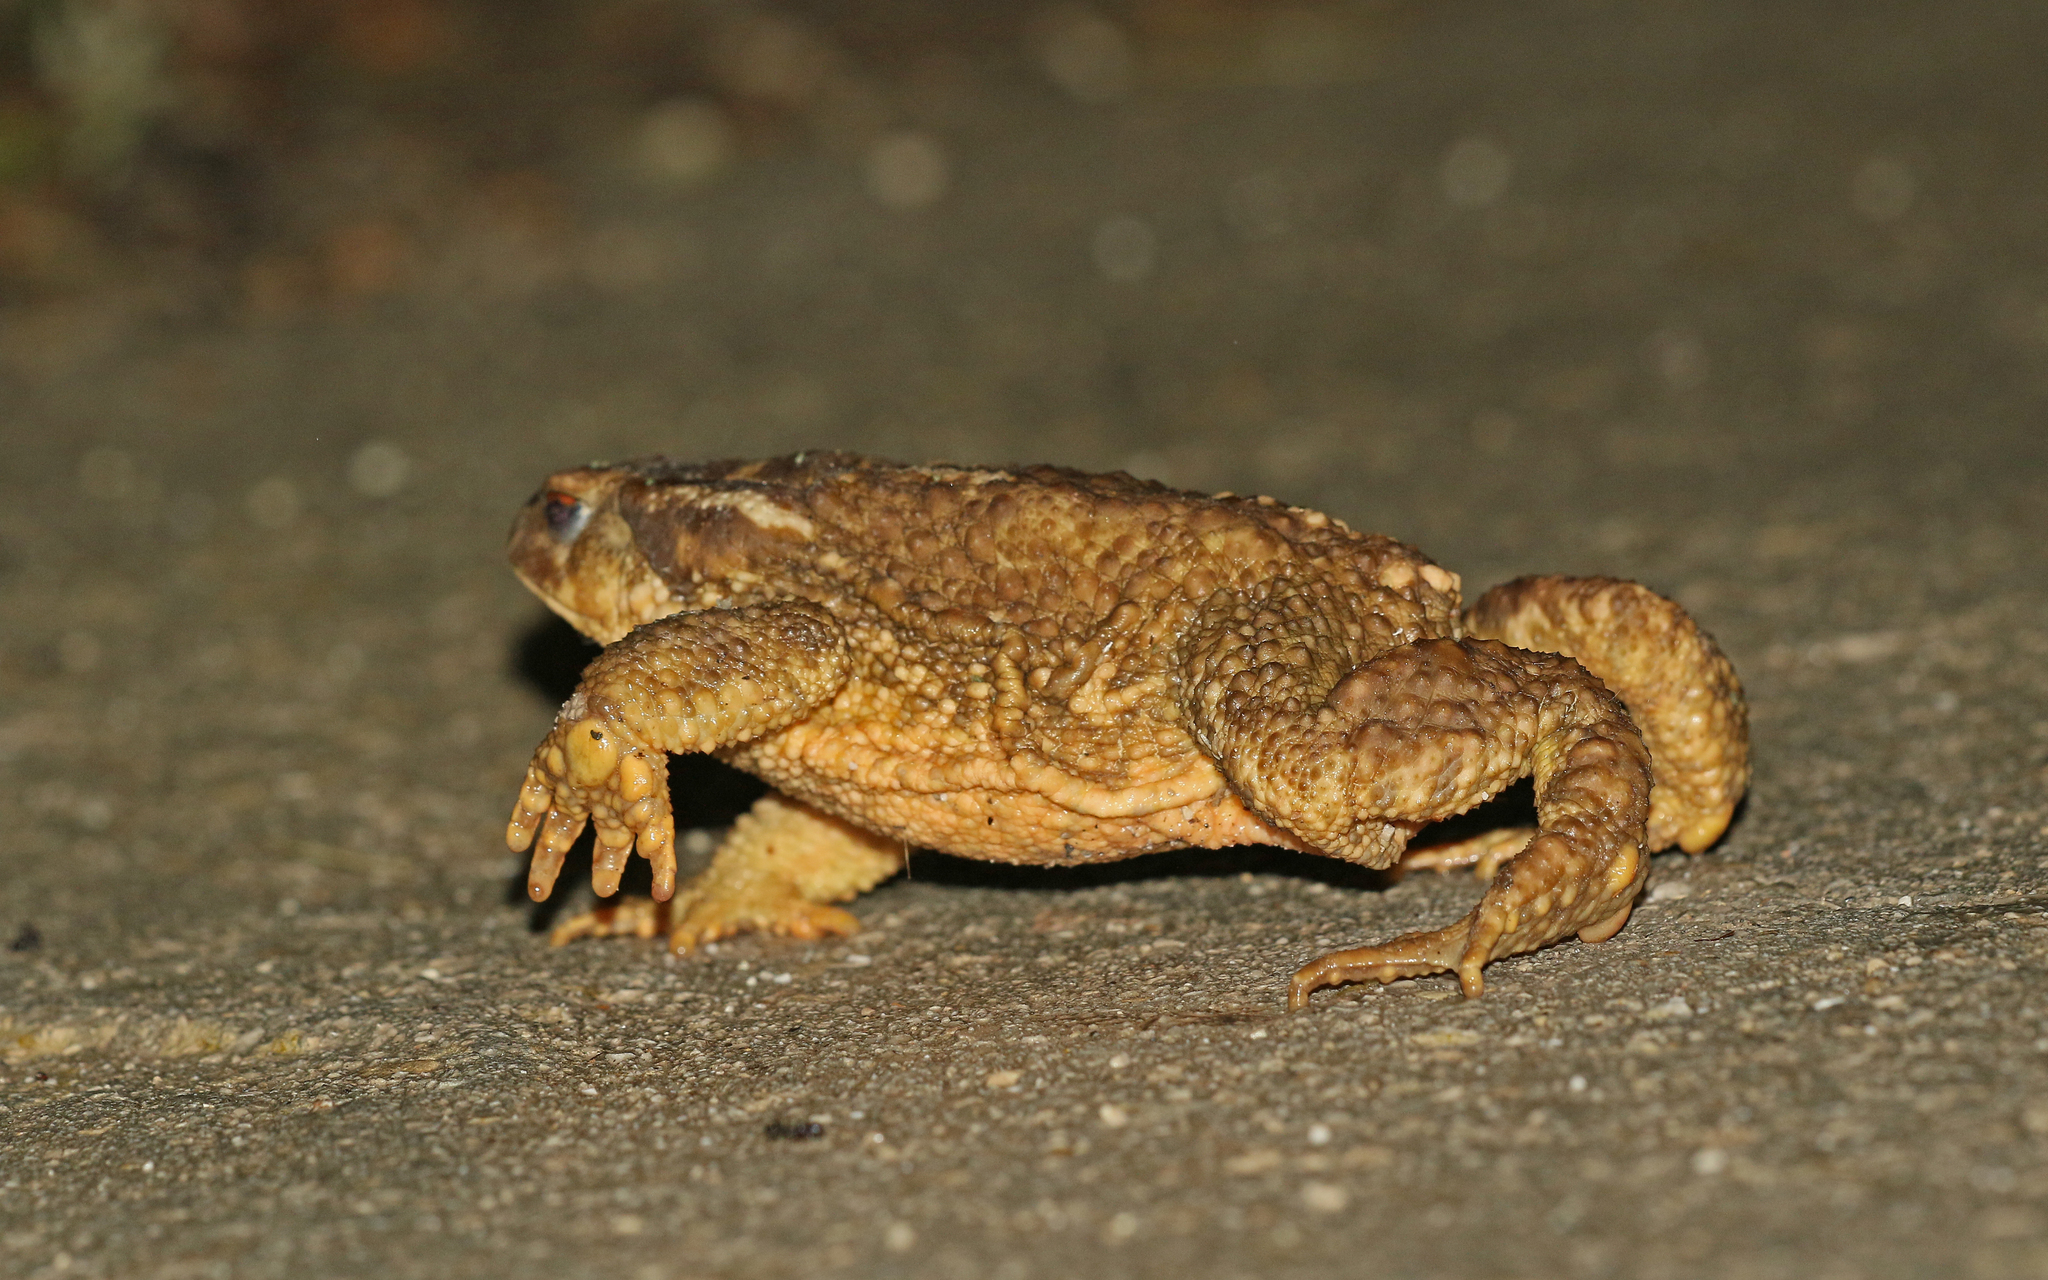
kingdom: Animalia
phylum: Chordata
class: Amphibia
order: Anura
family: Bufonidae
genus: Bufo
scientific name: Bufo spinosus
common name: Western common toad
